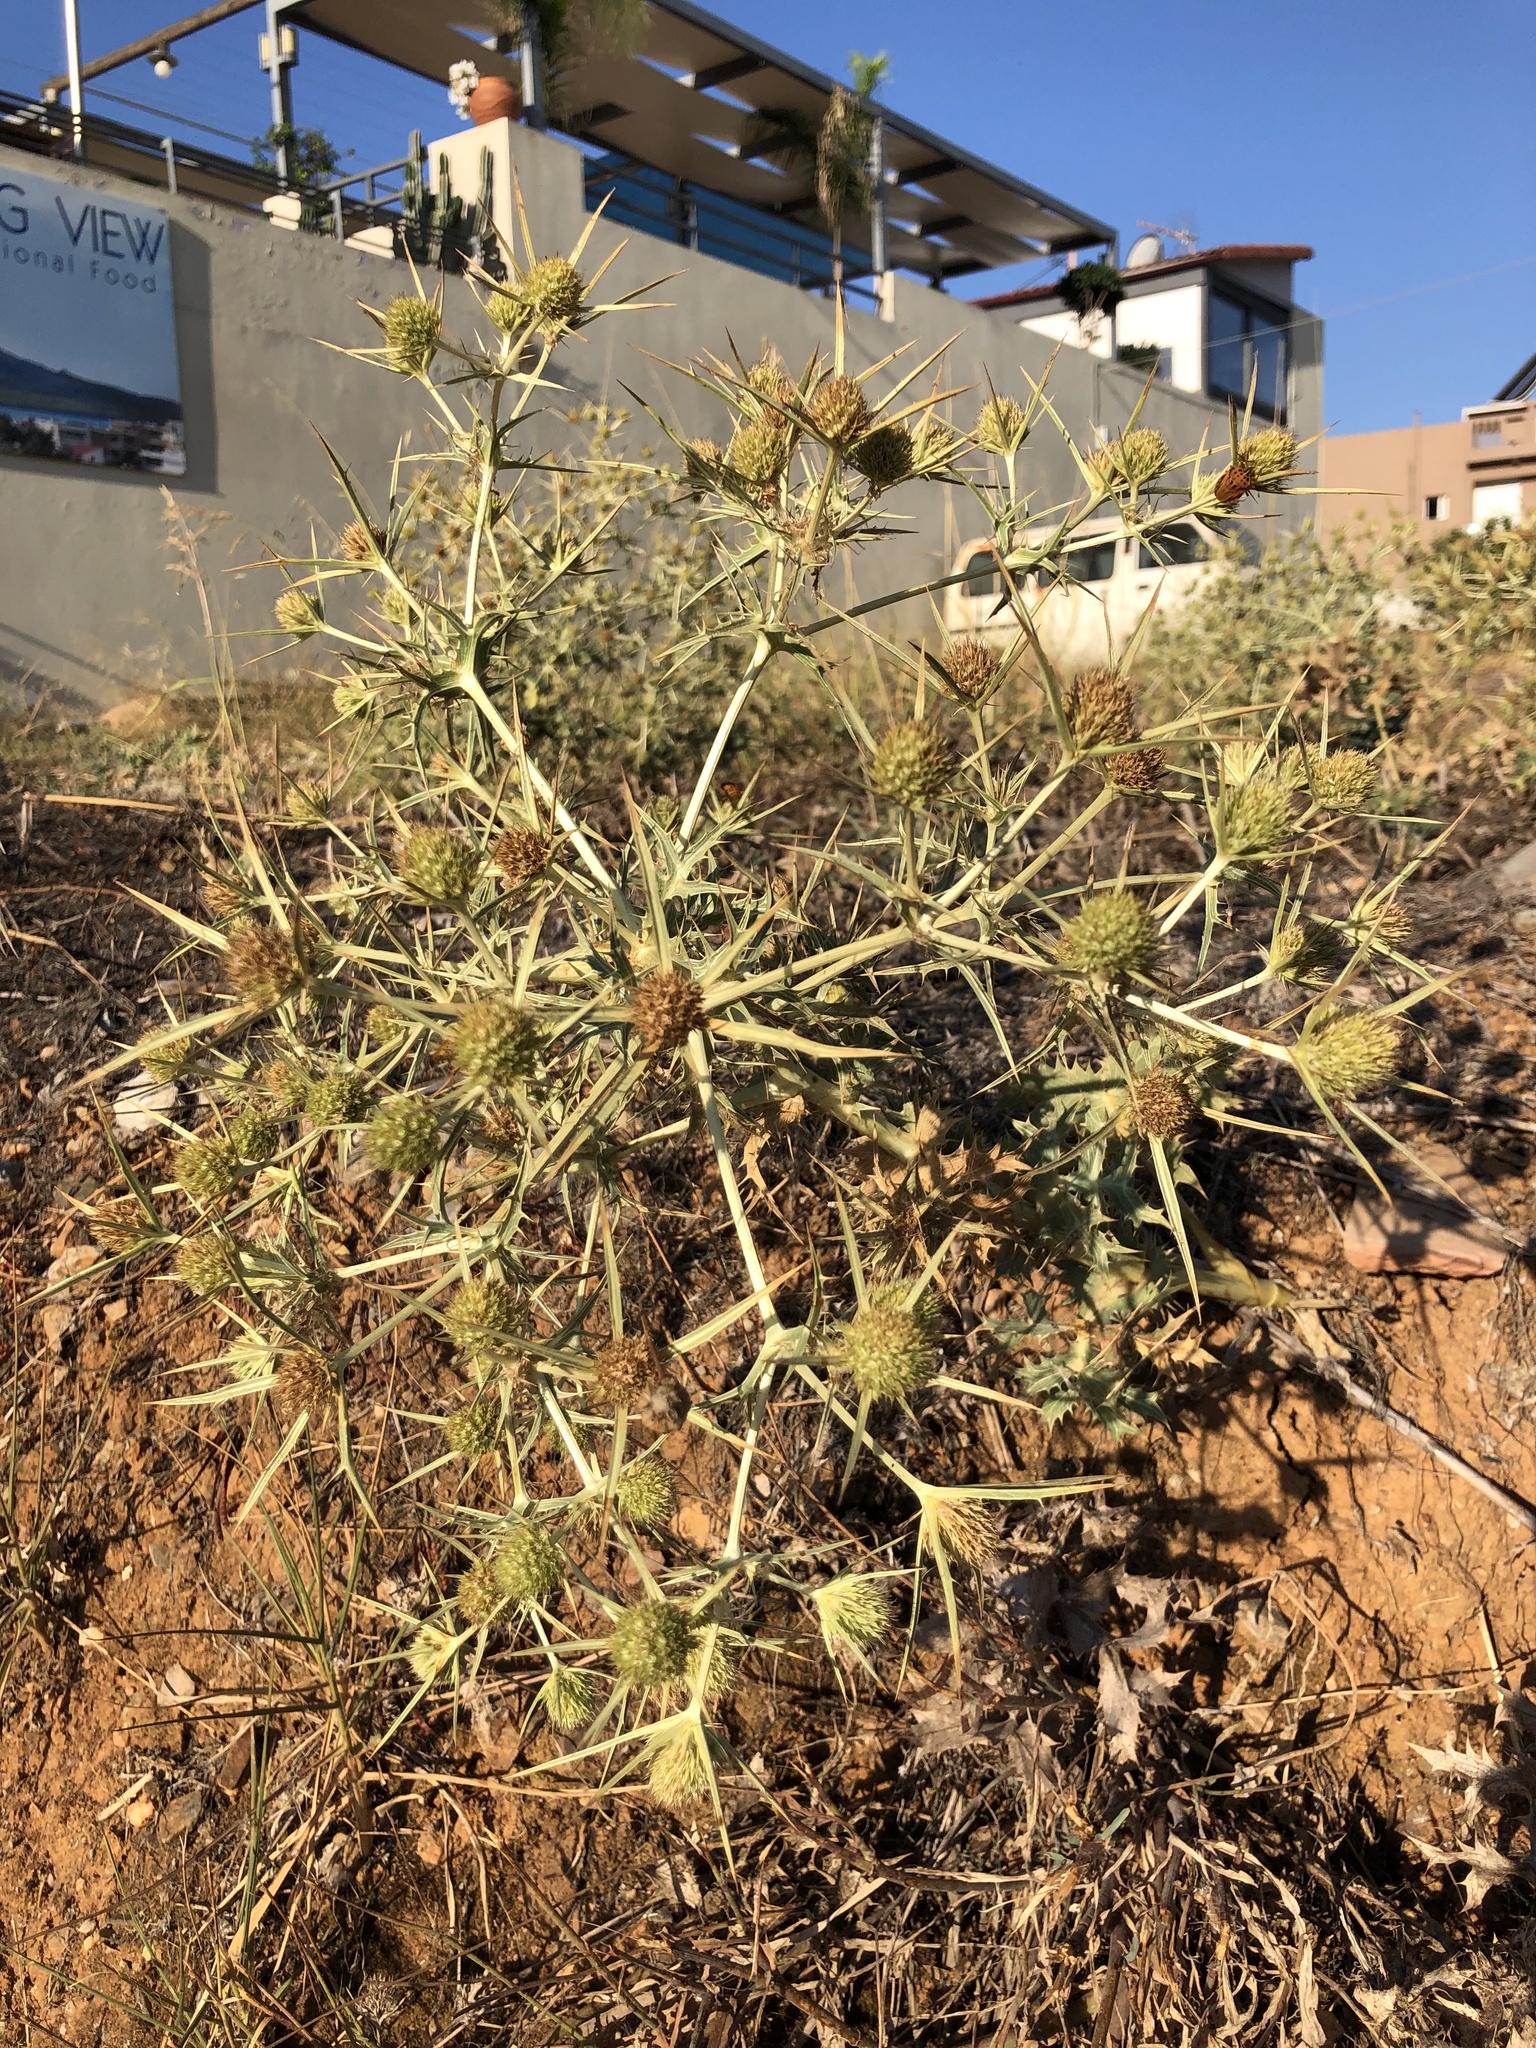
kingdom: Plantae
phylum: Tracheophyta
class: Magnoliopsida
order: Apiales
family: Apiaceae
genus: Eryngium
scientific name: Eryngium campestre
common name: Field eryngo
